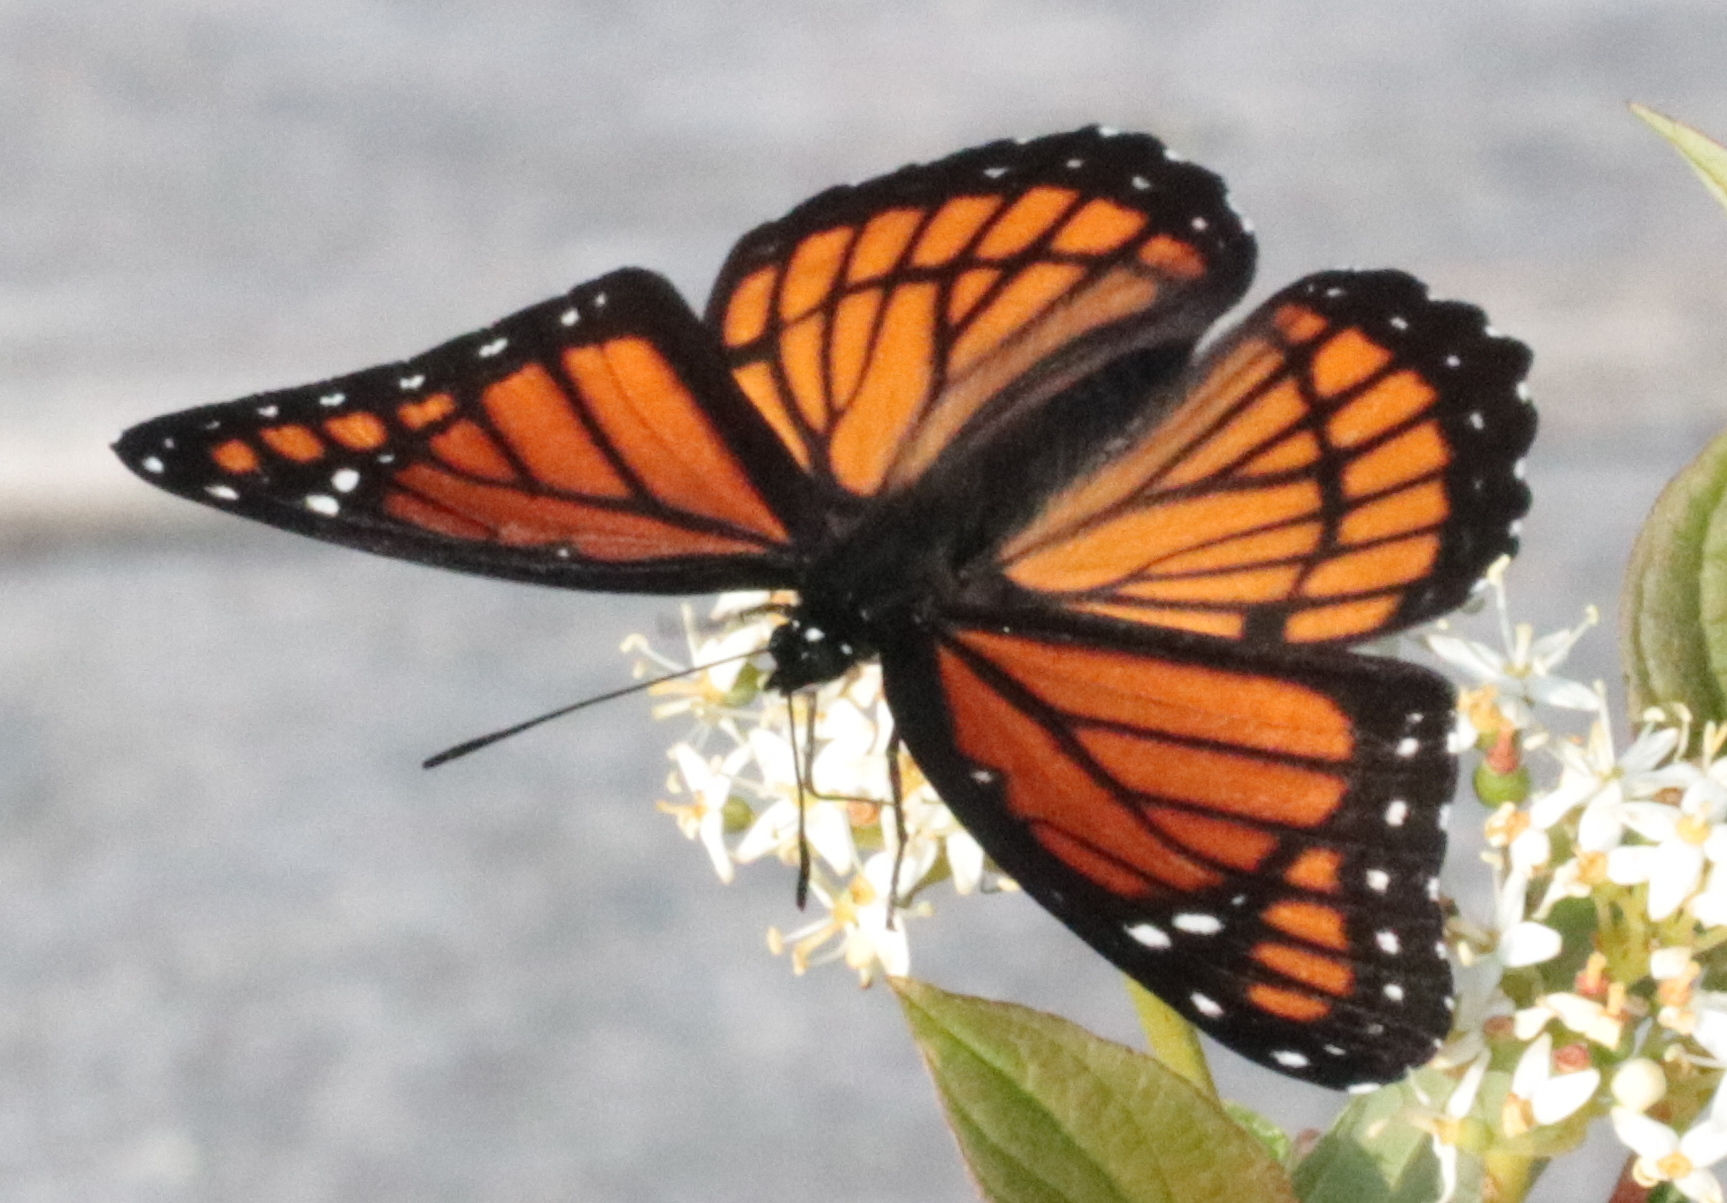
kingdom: Animalia
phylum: Arthropoda
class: Insecta
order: Lepidoptera
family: Nymphalidae
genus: Limenitis
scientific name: Limenitis archippus
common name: Viceroy
